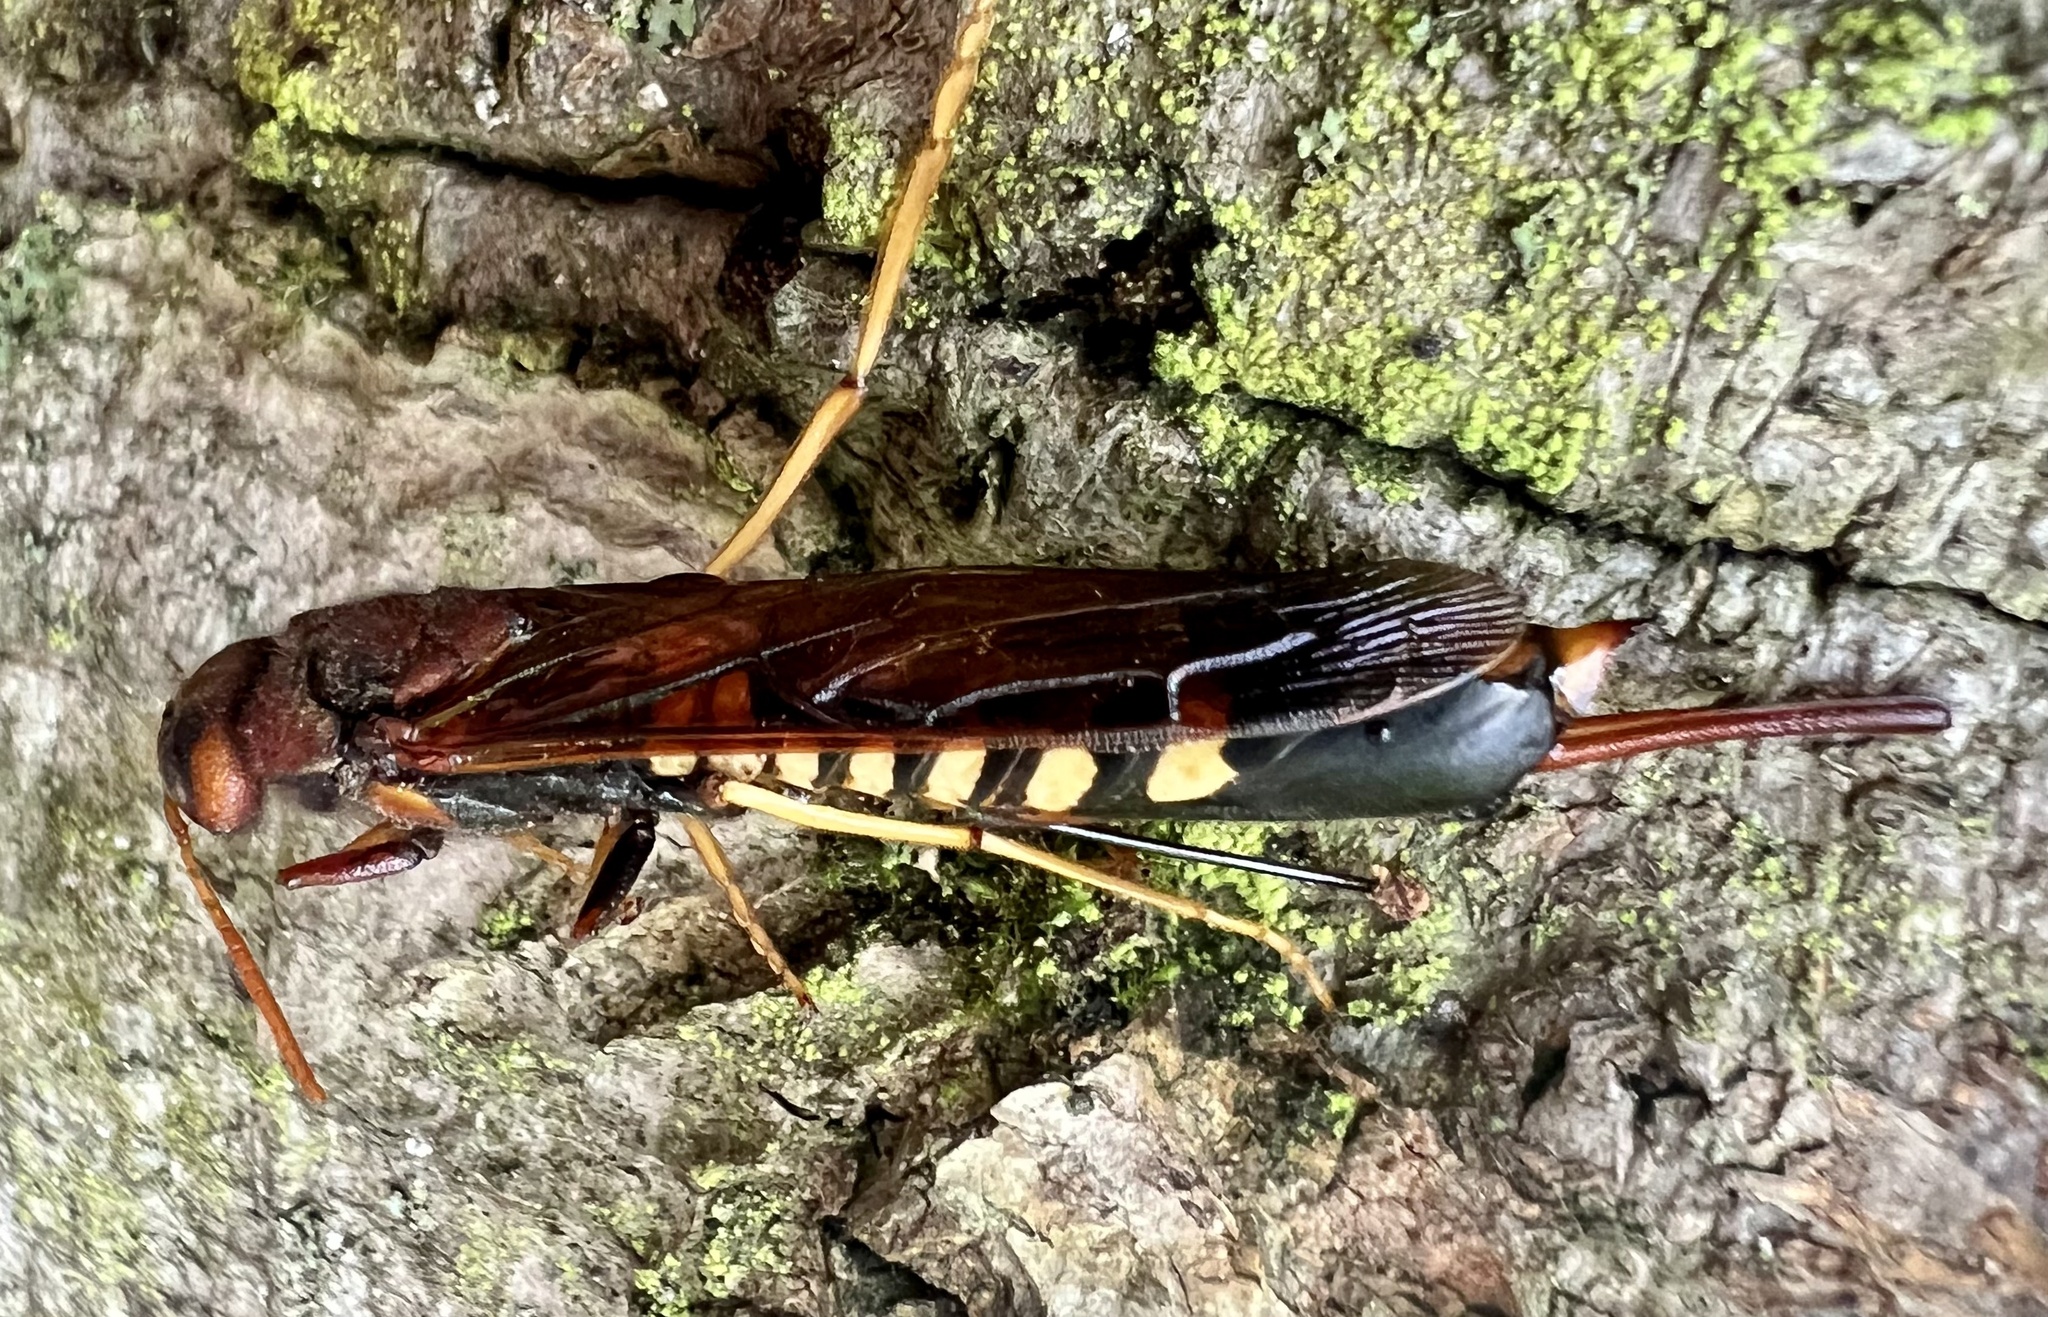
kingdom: Animalia
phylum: Arthropoda
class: Insecta
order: Hymenoptera
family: Siricidae
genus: Tremex
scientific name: Tremex columba
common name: Wasp
